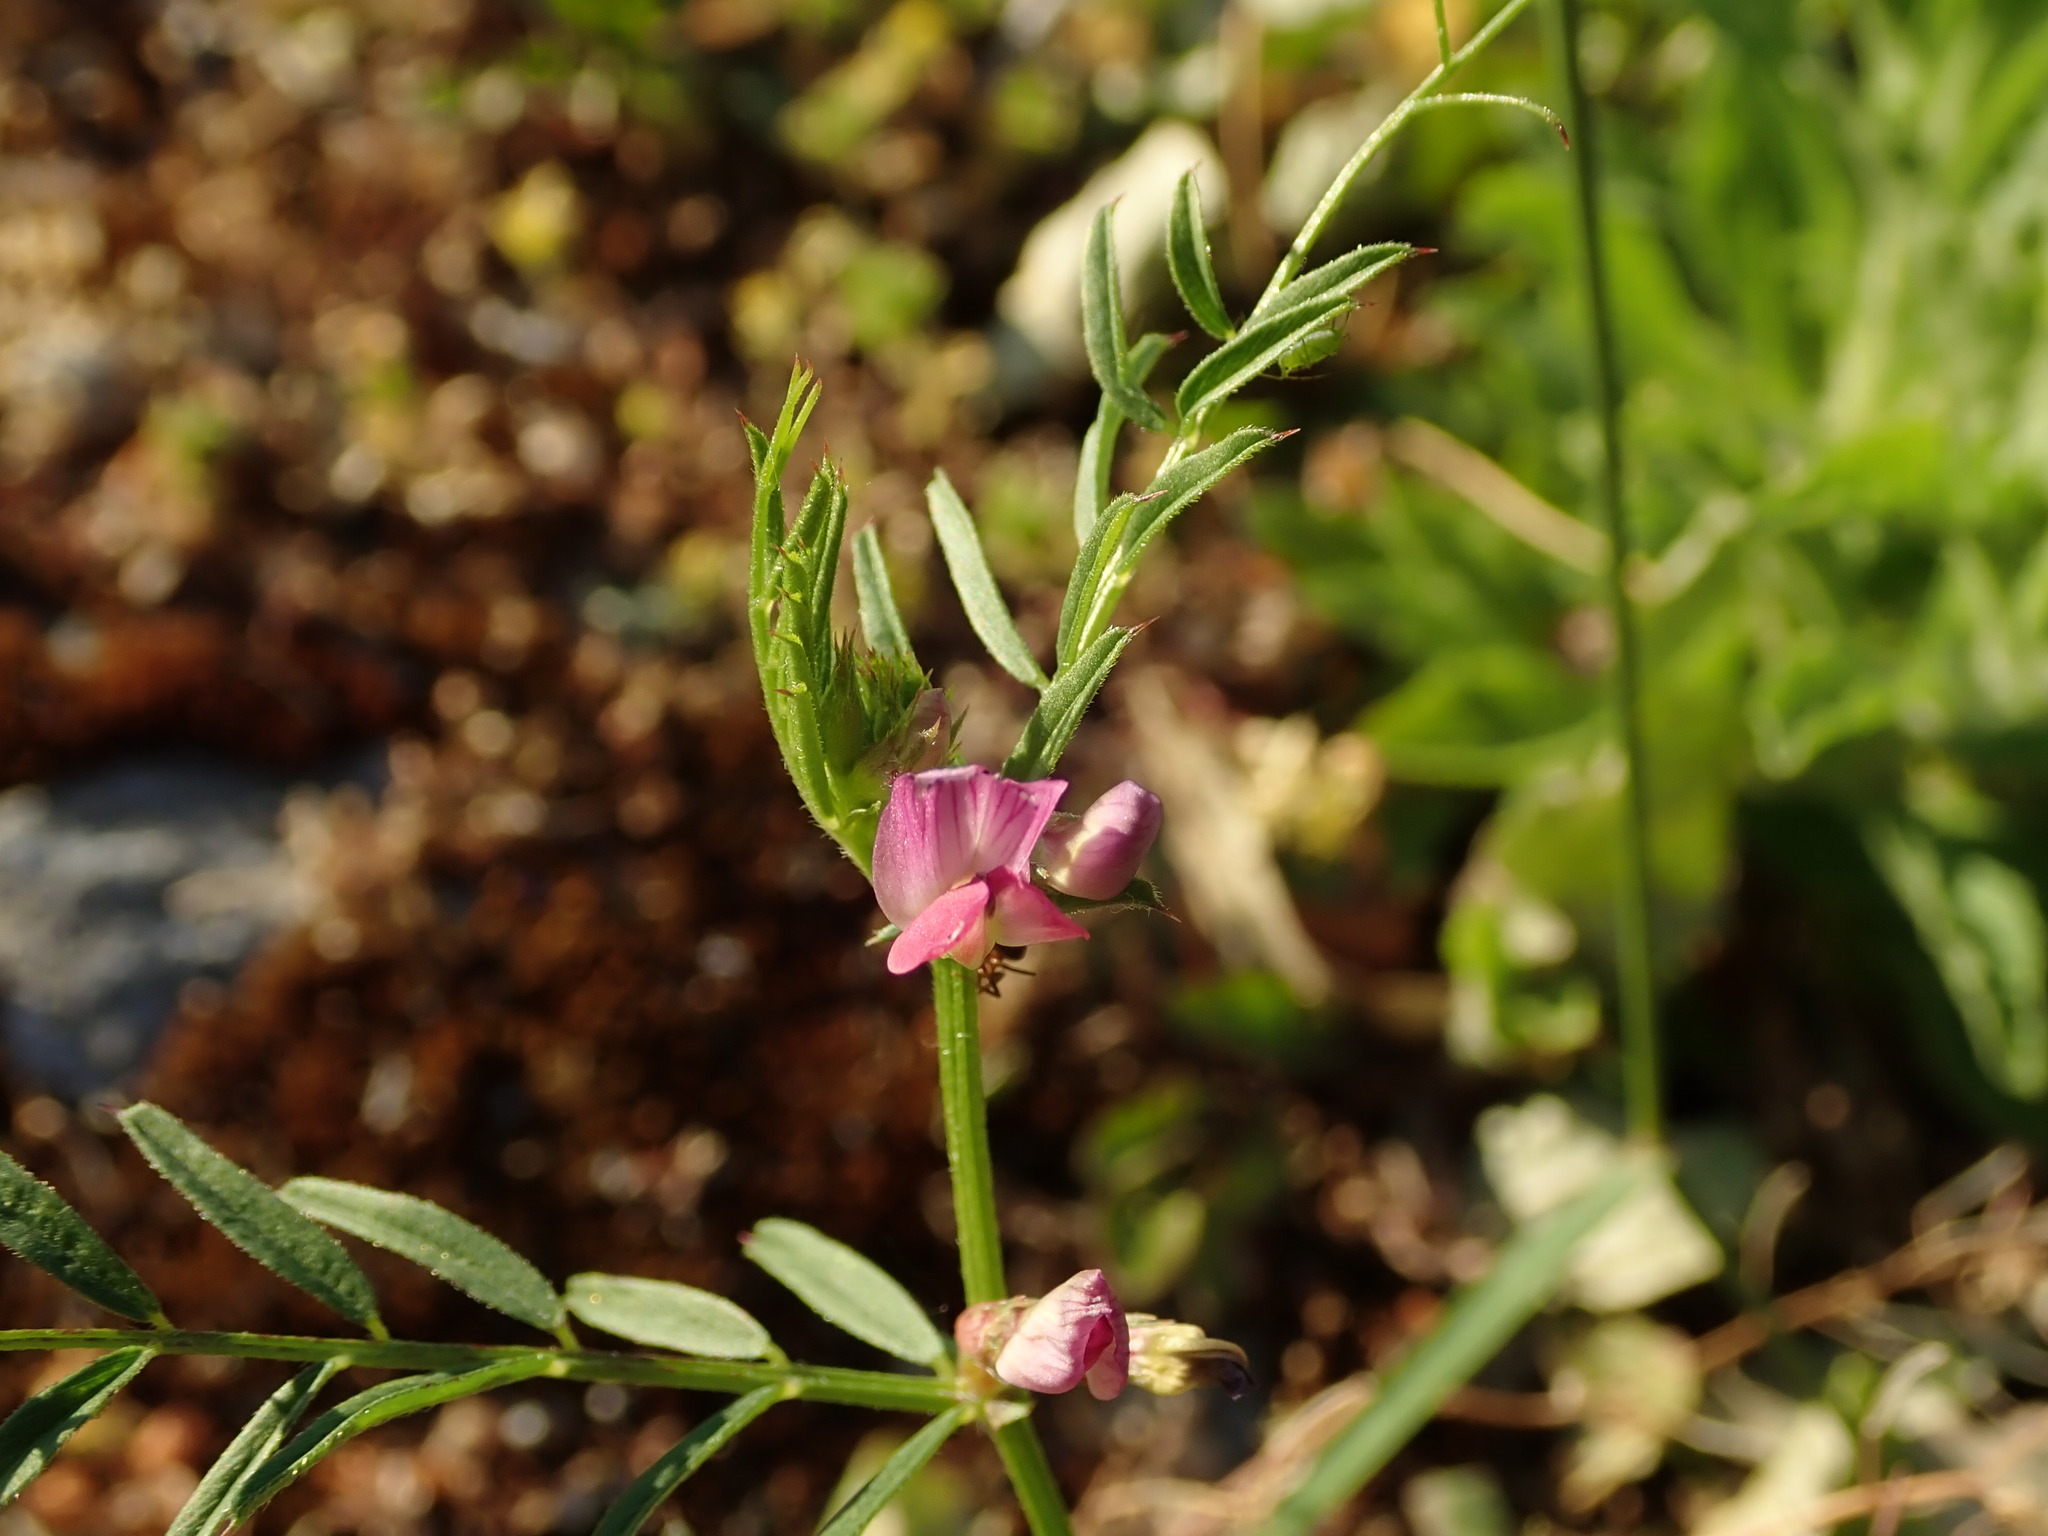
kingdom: Plantae
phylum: Tracheophyta
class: Magnoliopsida
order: Fabales
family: Fabaceae
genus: Vicia
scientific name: Vicia sativa
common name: Garden vetch
